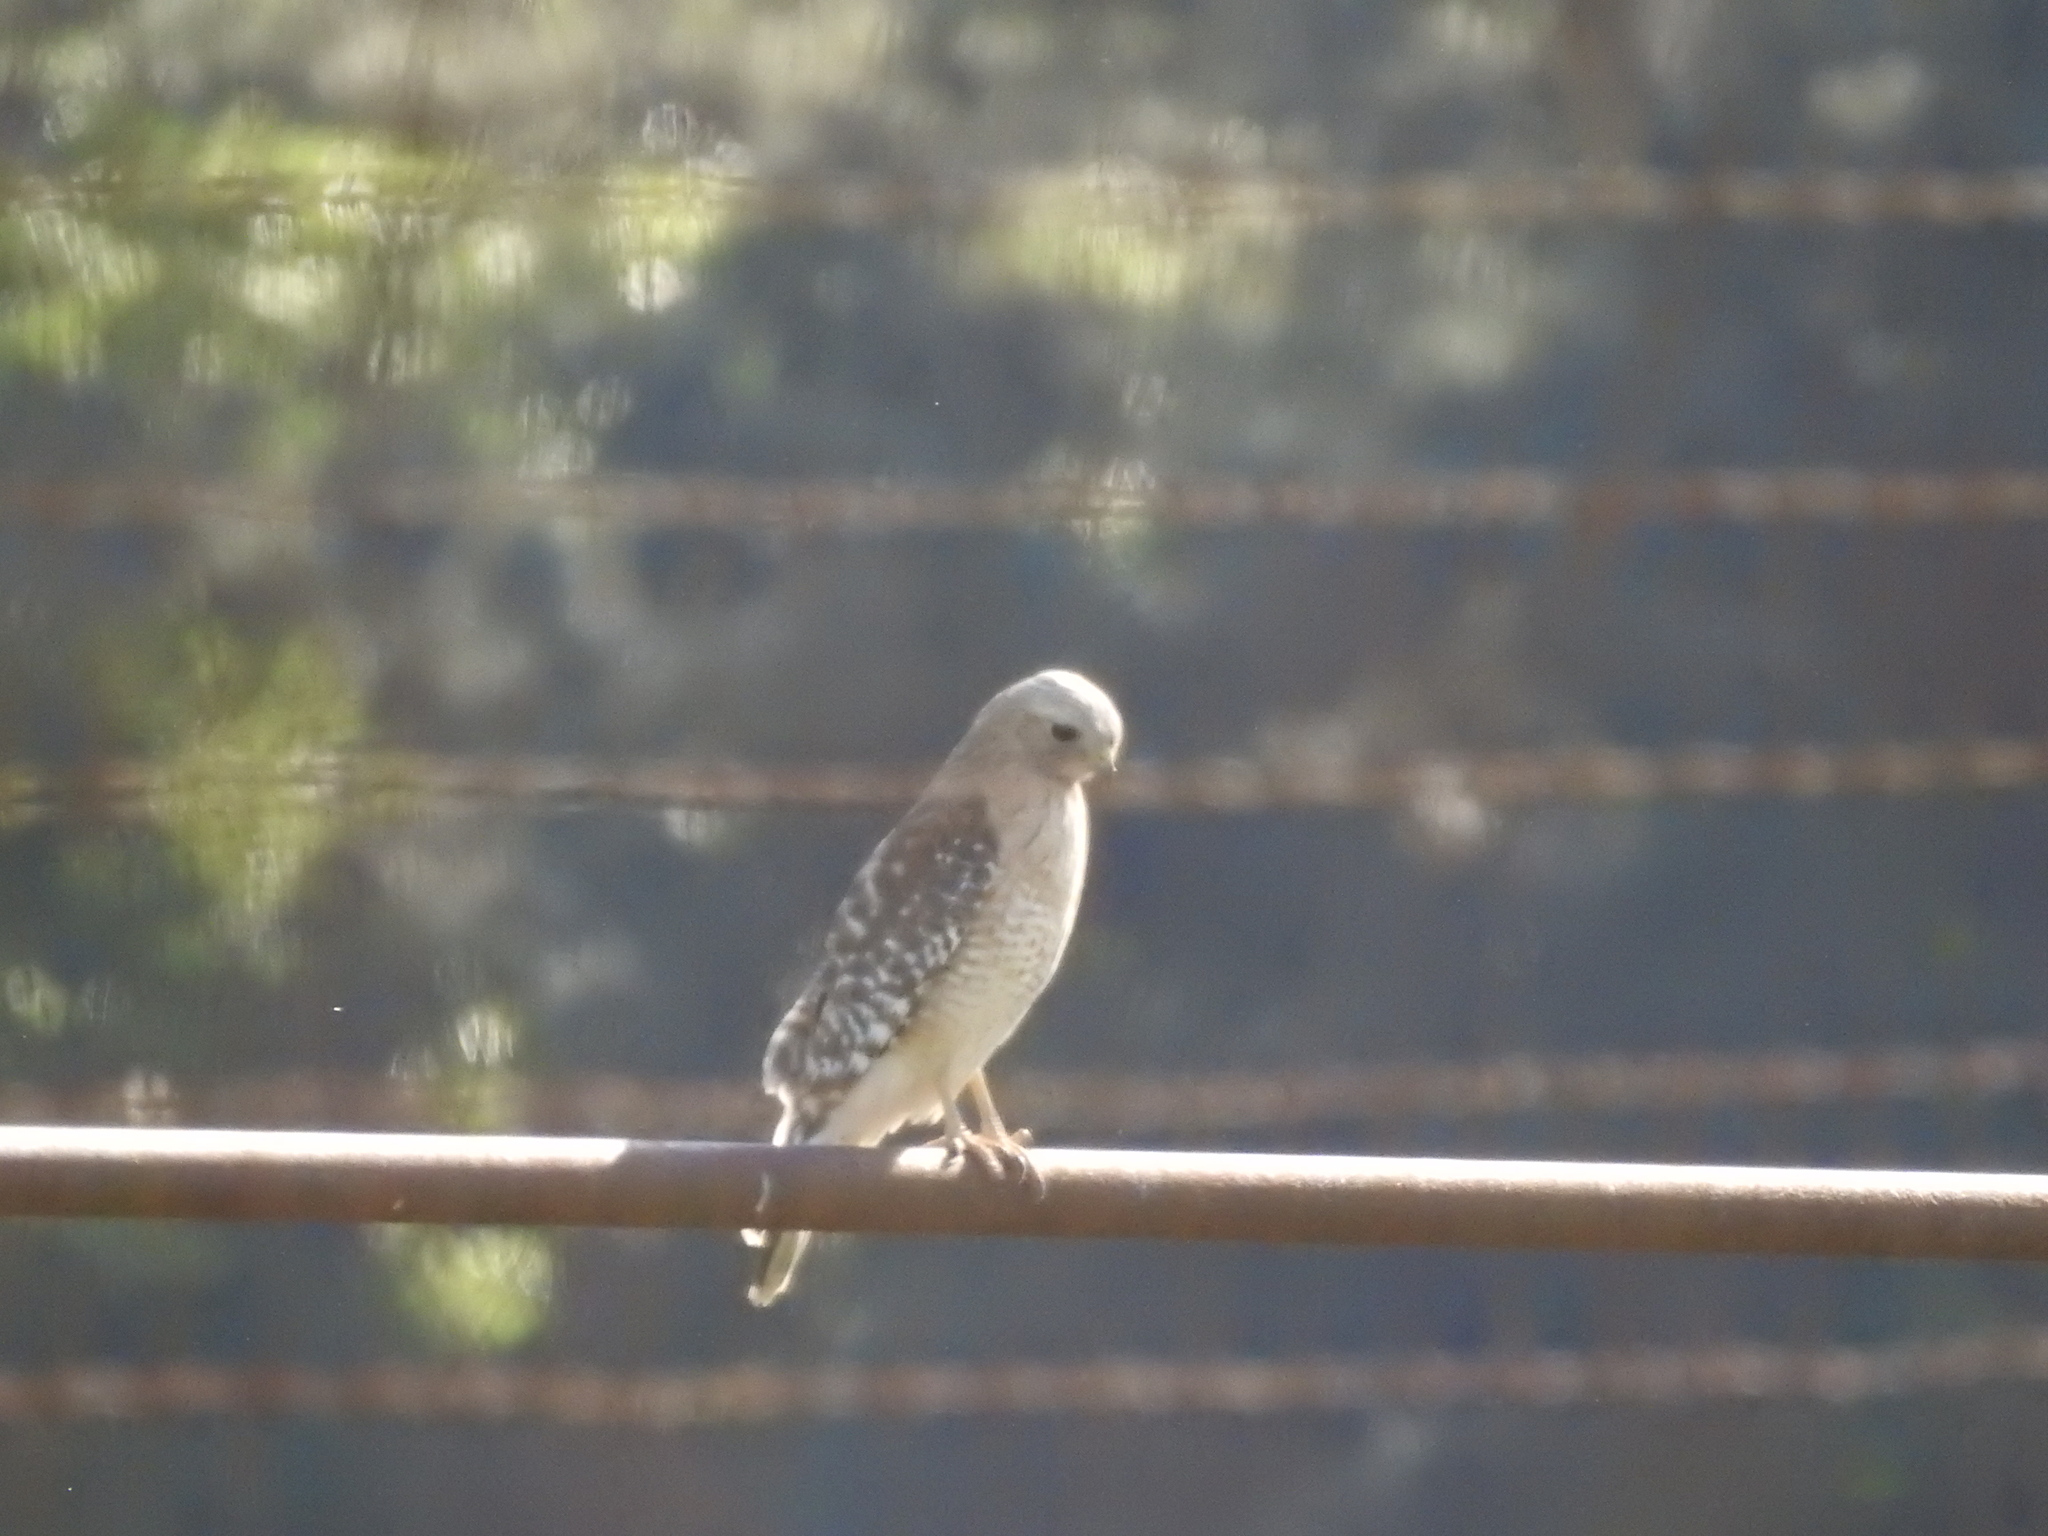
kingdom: Animalia
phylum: Chordata
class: Aves
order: Accipitriformes
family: Accipitridae
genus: Buteo
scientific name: Buteo lineatus
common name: Red-shouldered hawk
